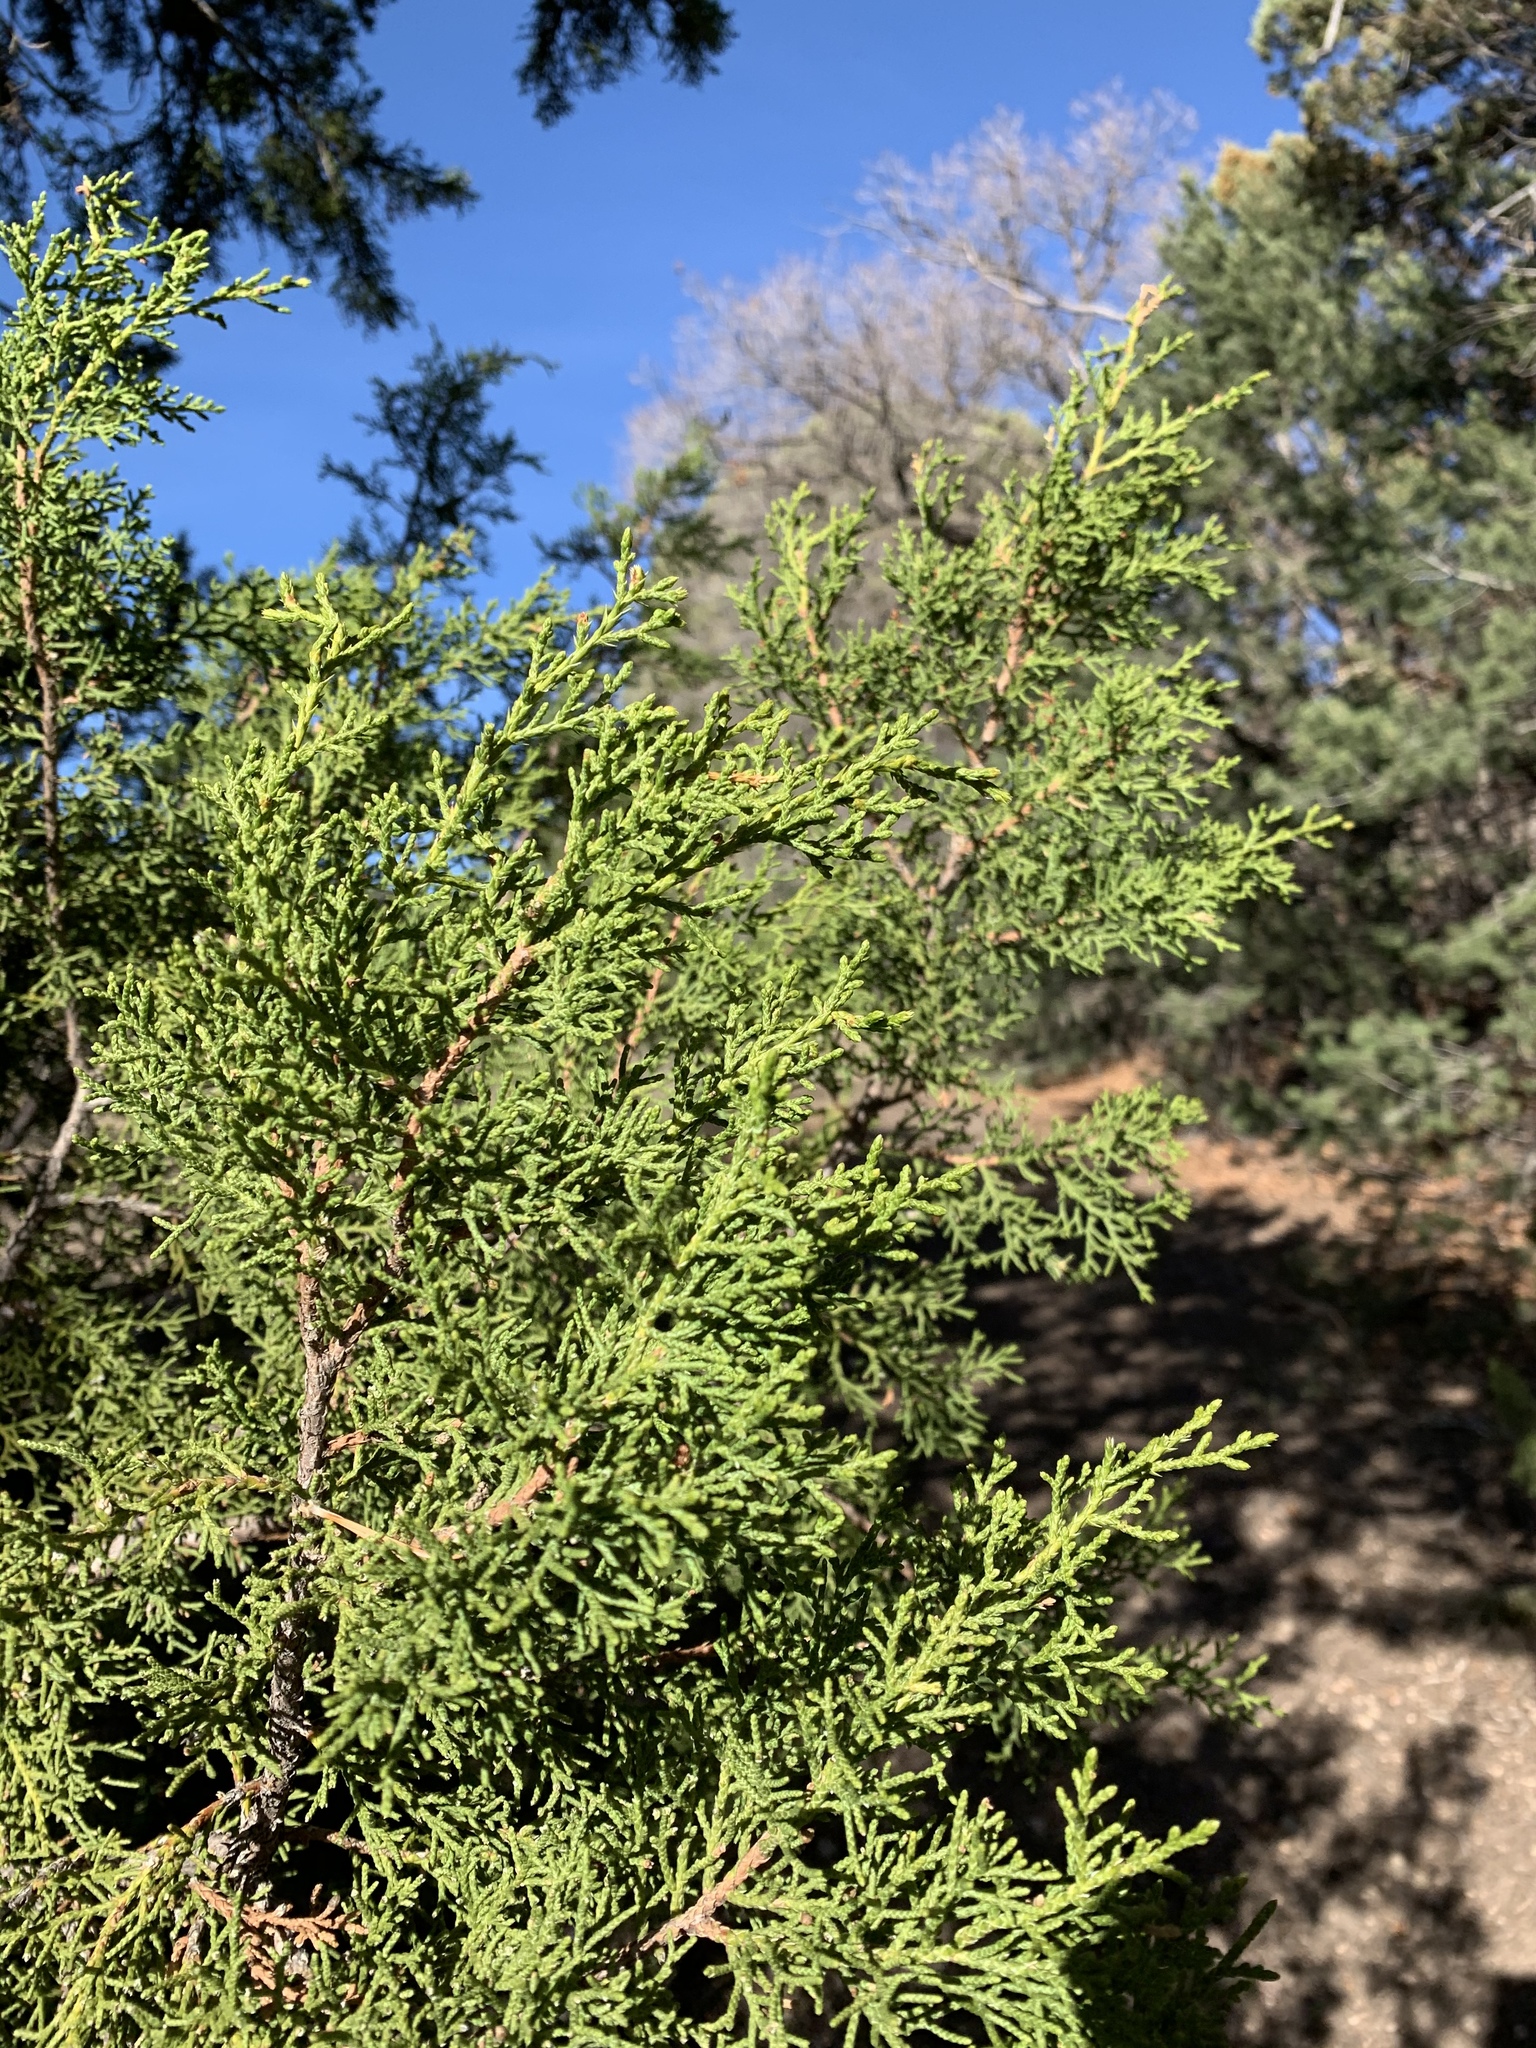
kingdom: Plantae
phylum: Tracheophyta
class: Pinopsida
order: Pinales
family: Cupressaceae
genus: Juniperus
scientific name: Juniperus monosperma
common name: One-seed juniper
